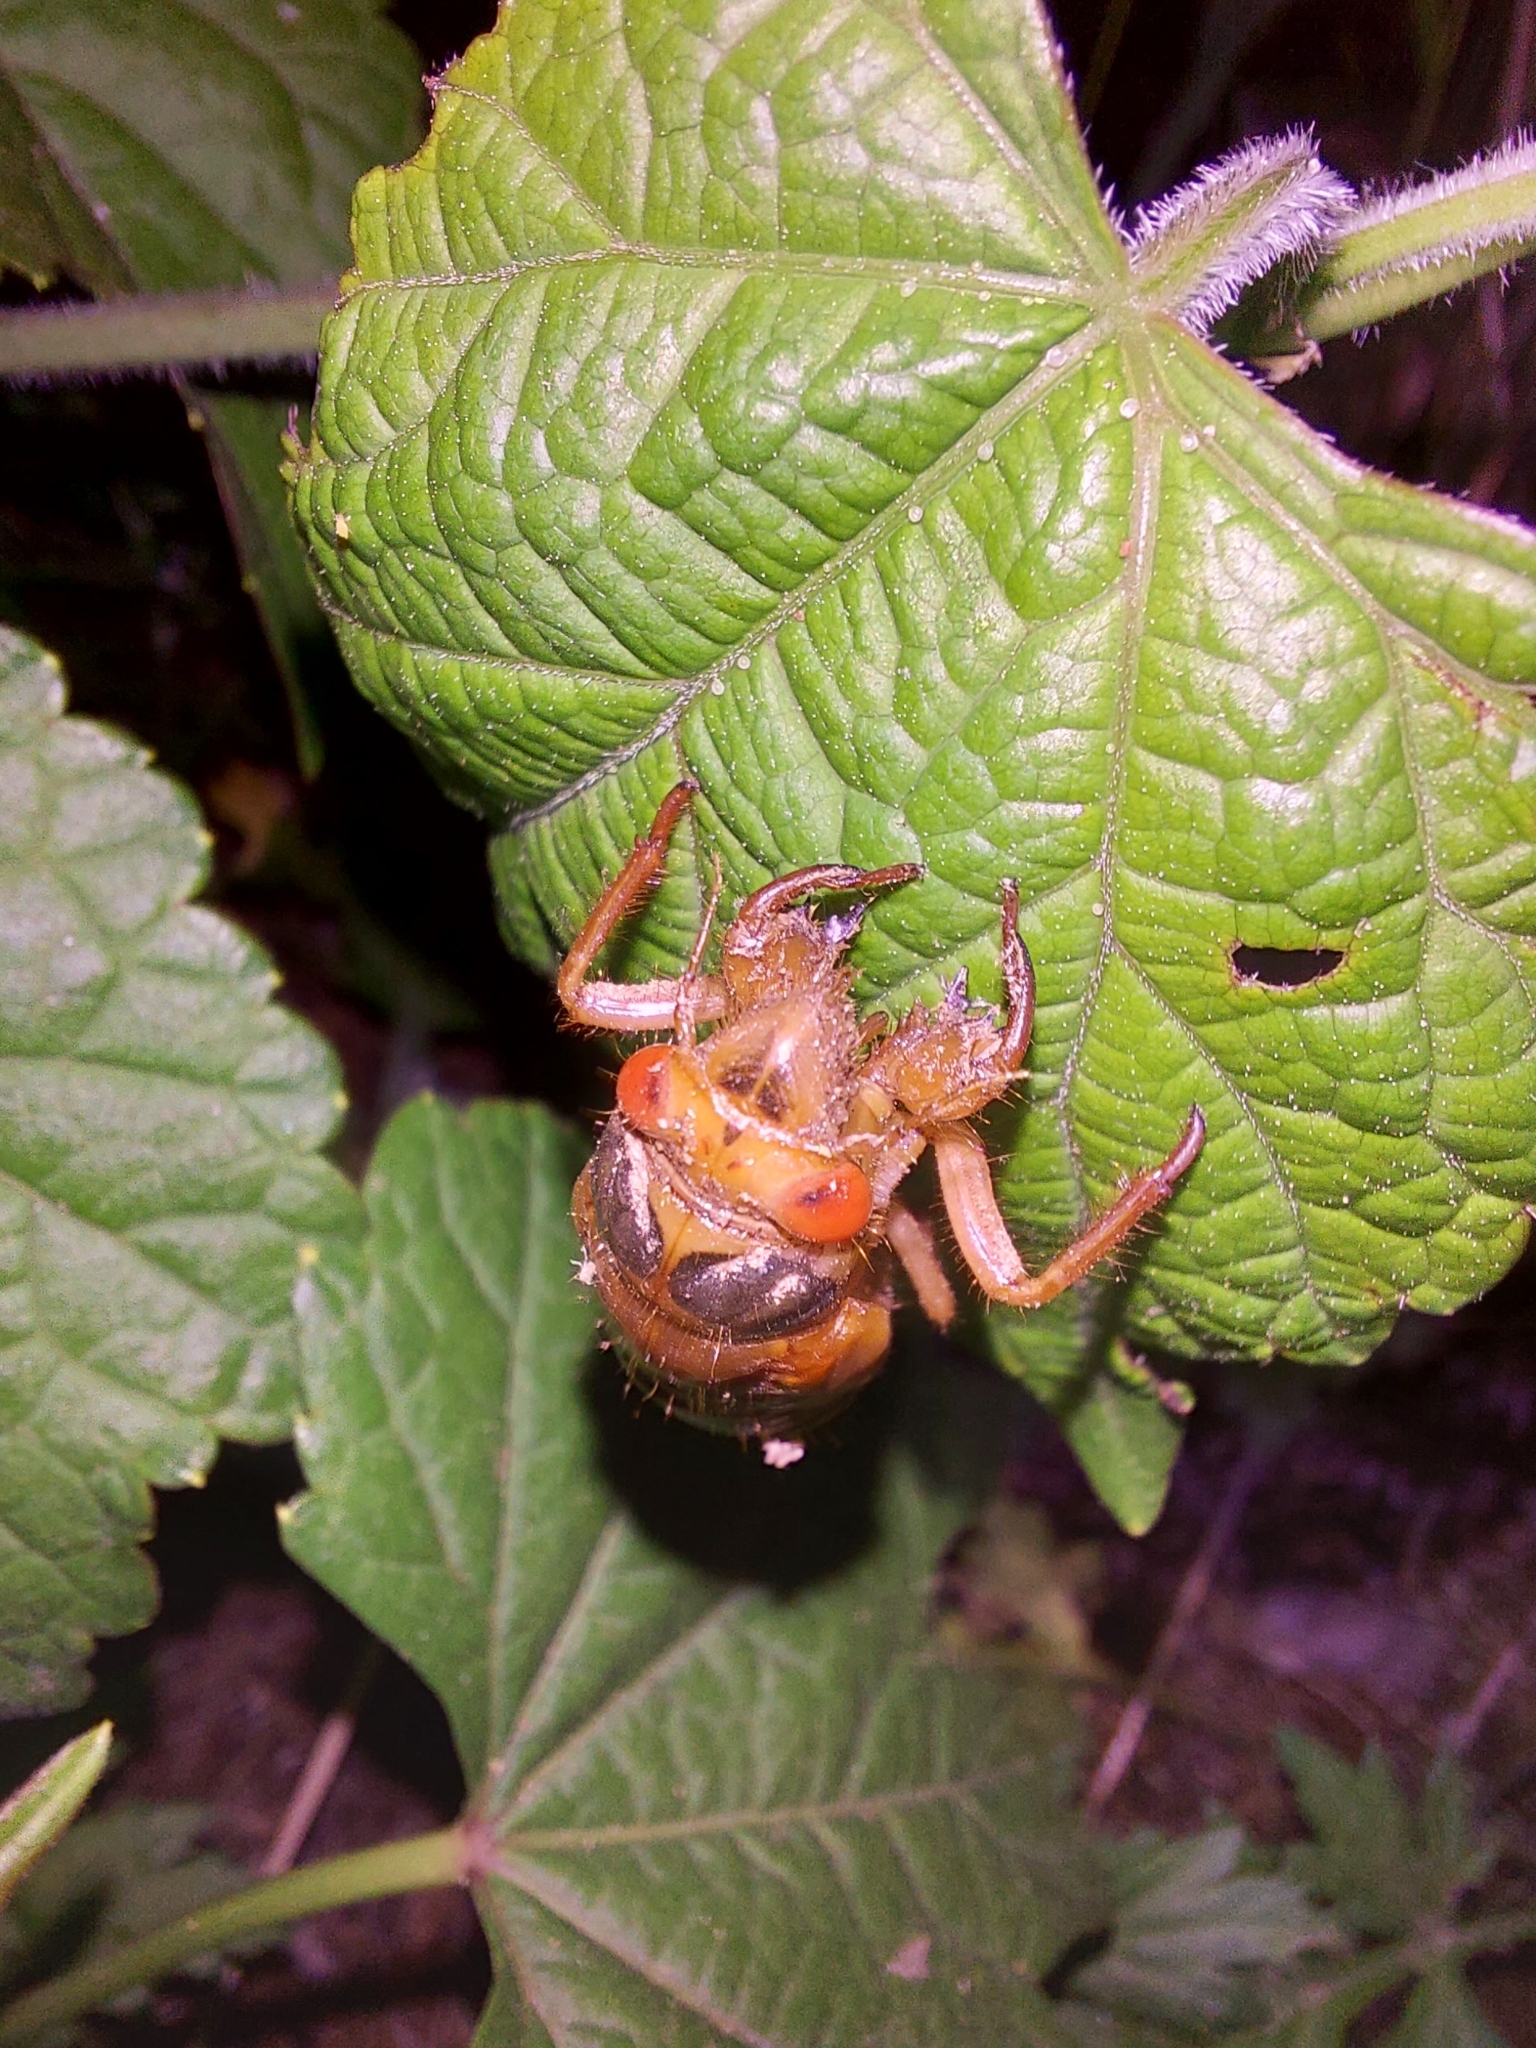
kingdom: Animalia
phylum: Arthropoda
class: Insecta
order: Hemiptera
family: Cicadidae
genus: Magicicada
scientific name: Magicicada
